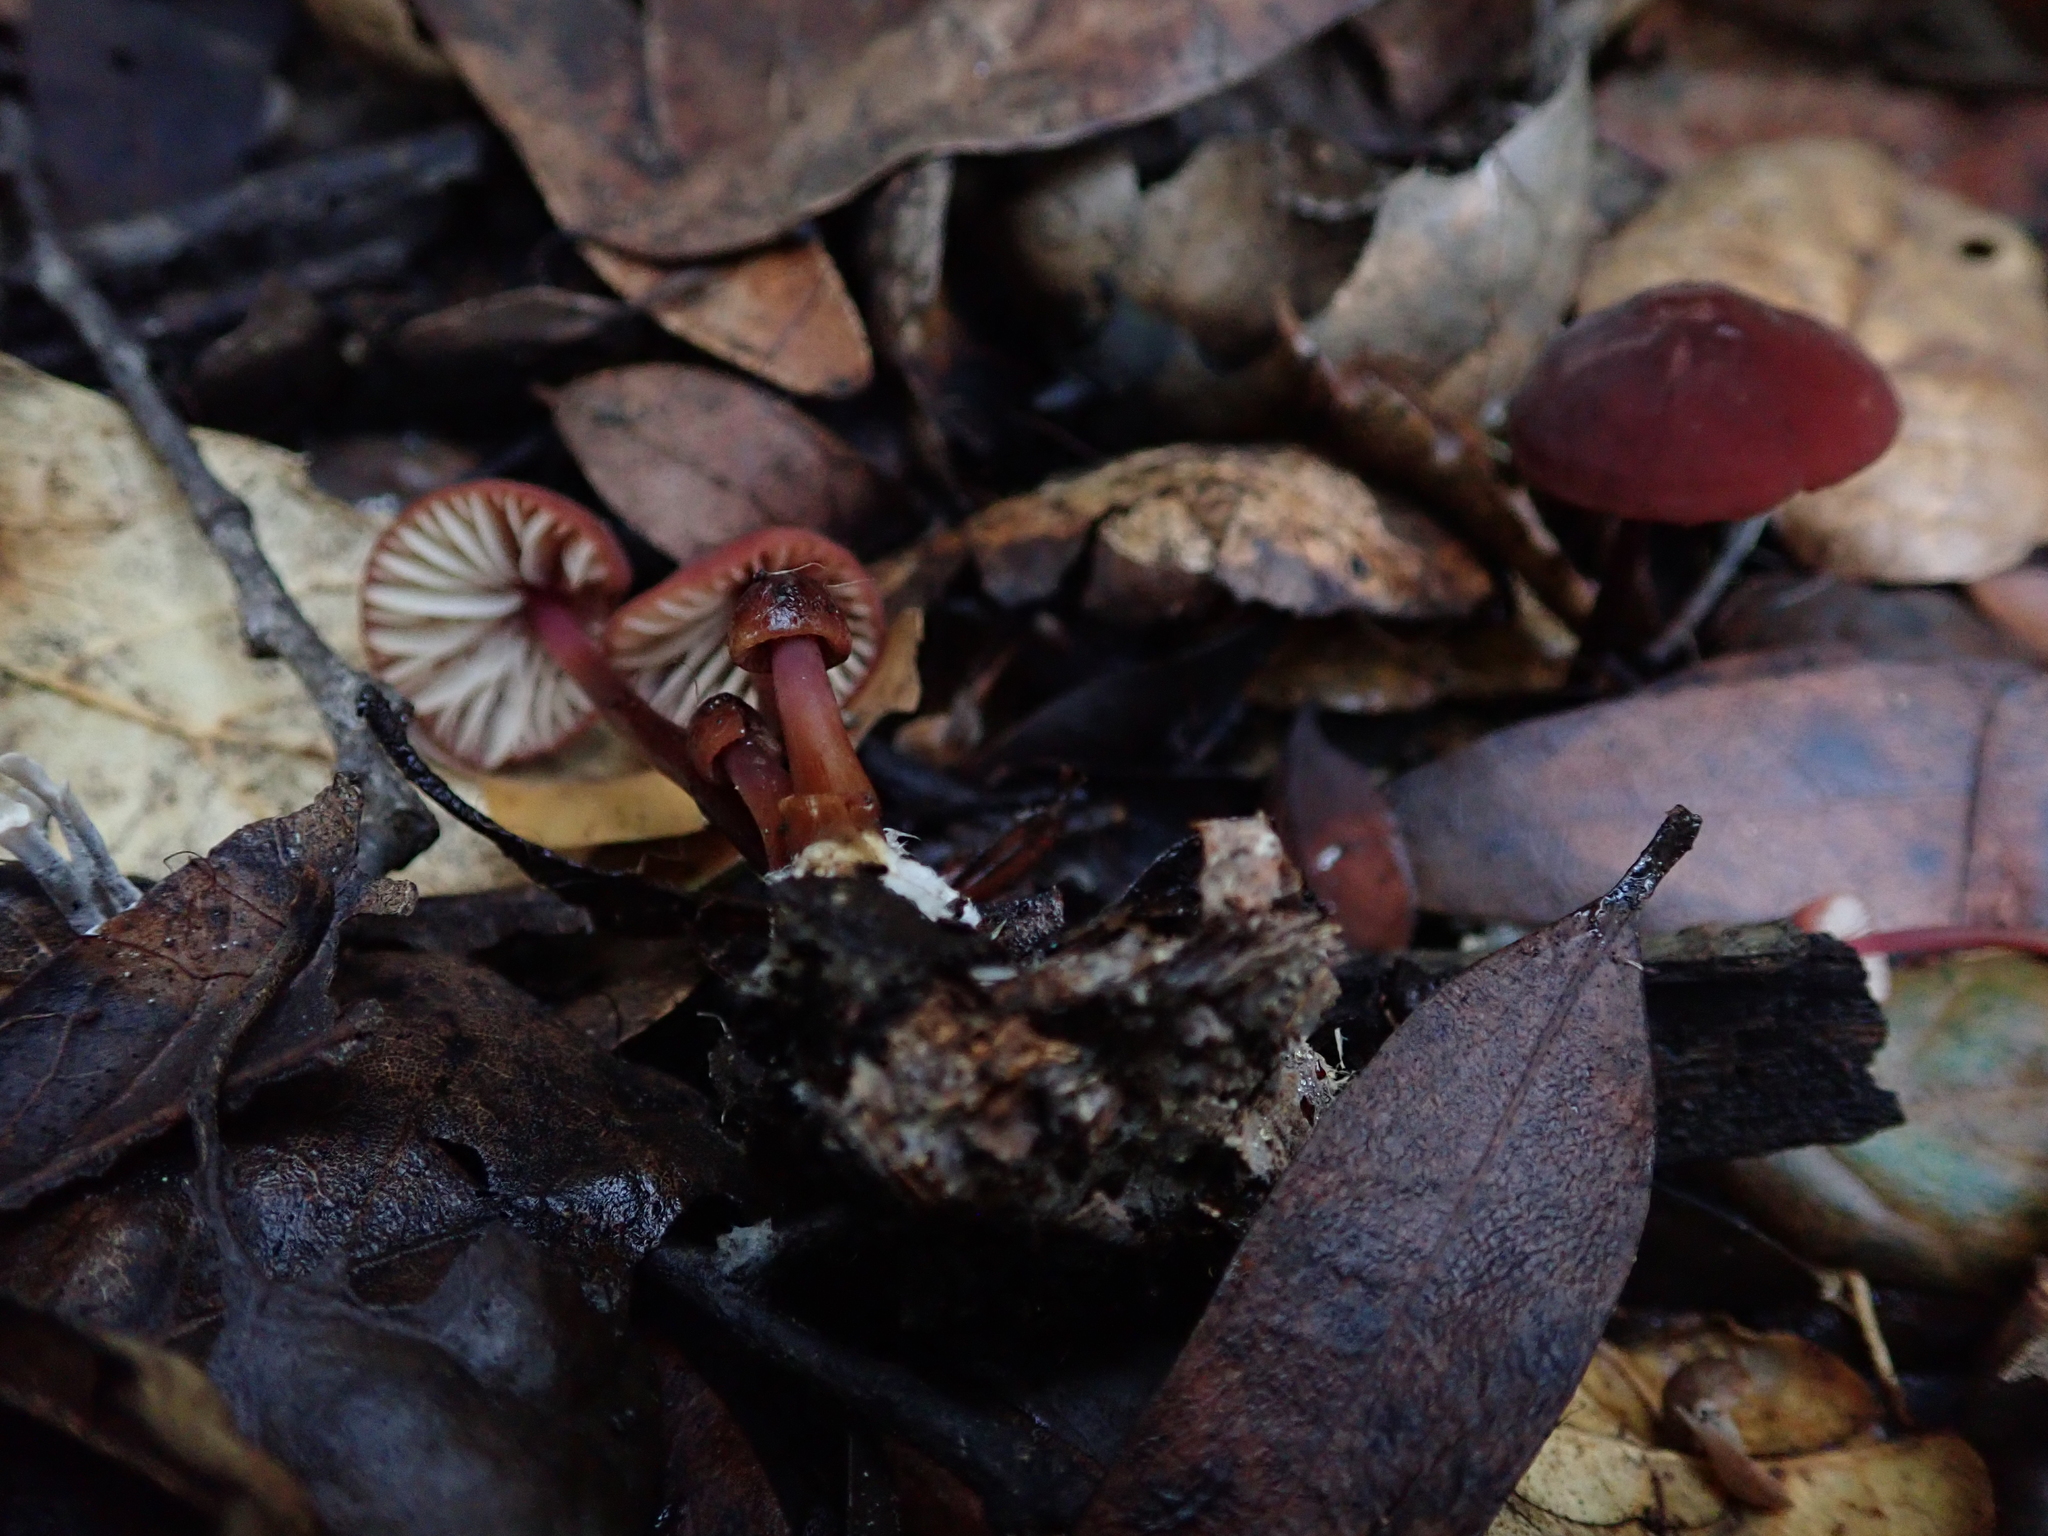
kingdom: Fungi
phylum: Basidiomycota
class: Agaricomycetes
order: Agaricales
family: Marasmiaceae
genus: Marasmius
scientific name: Marasmius plicatulus
